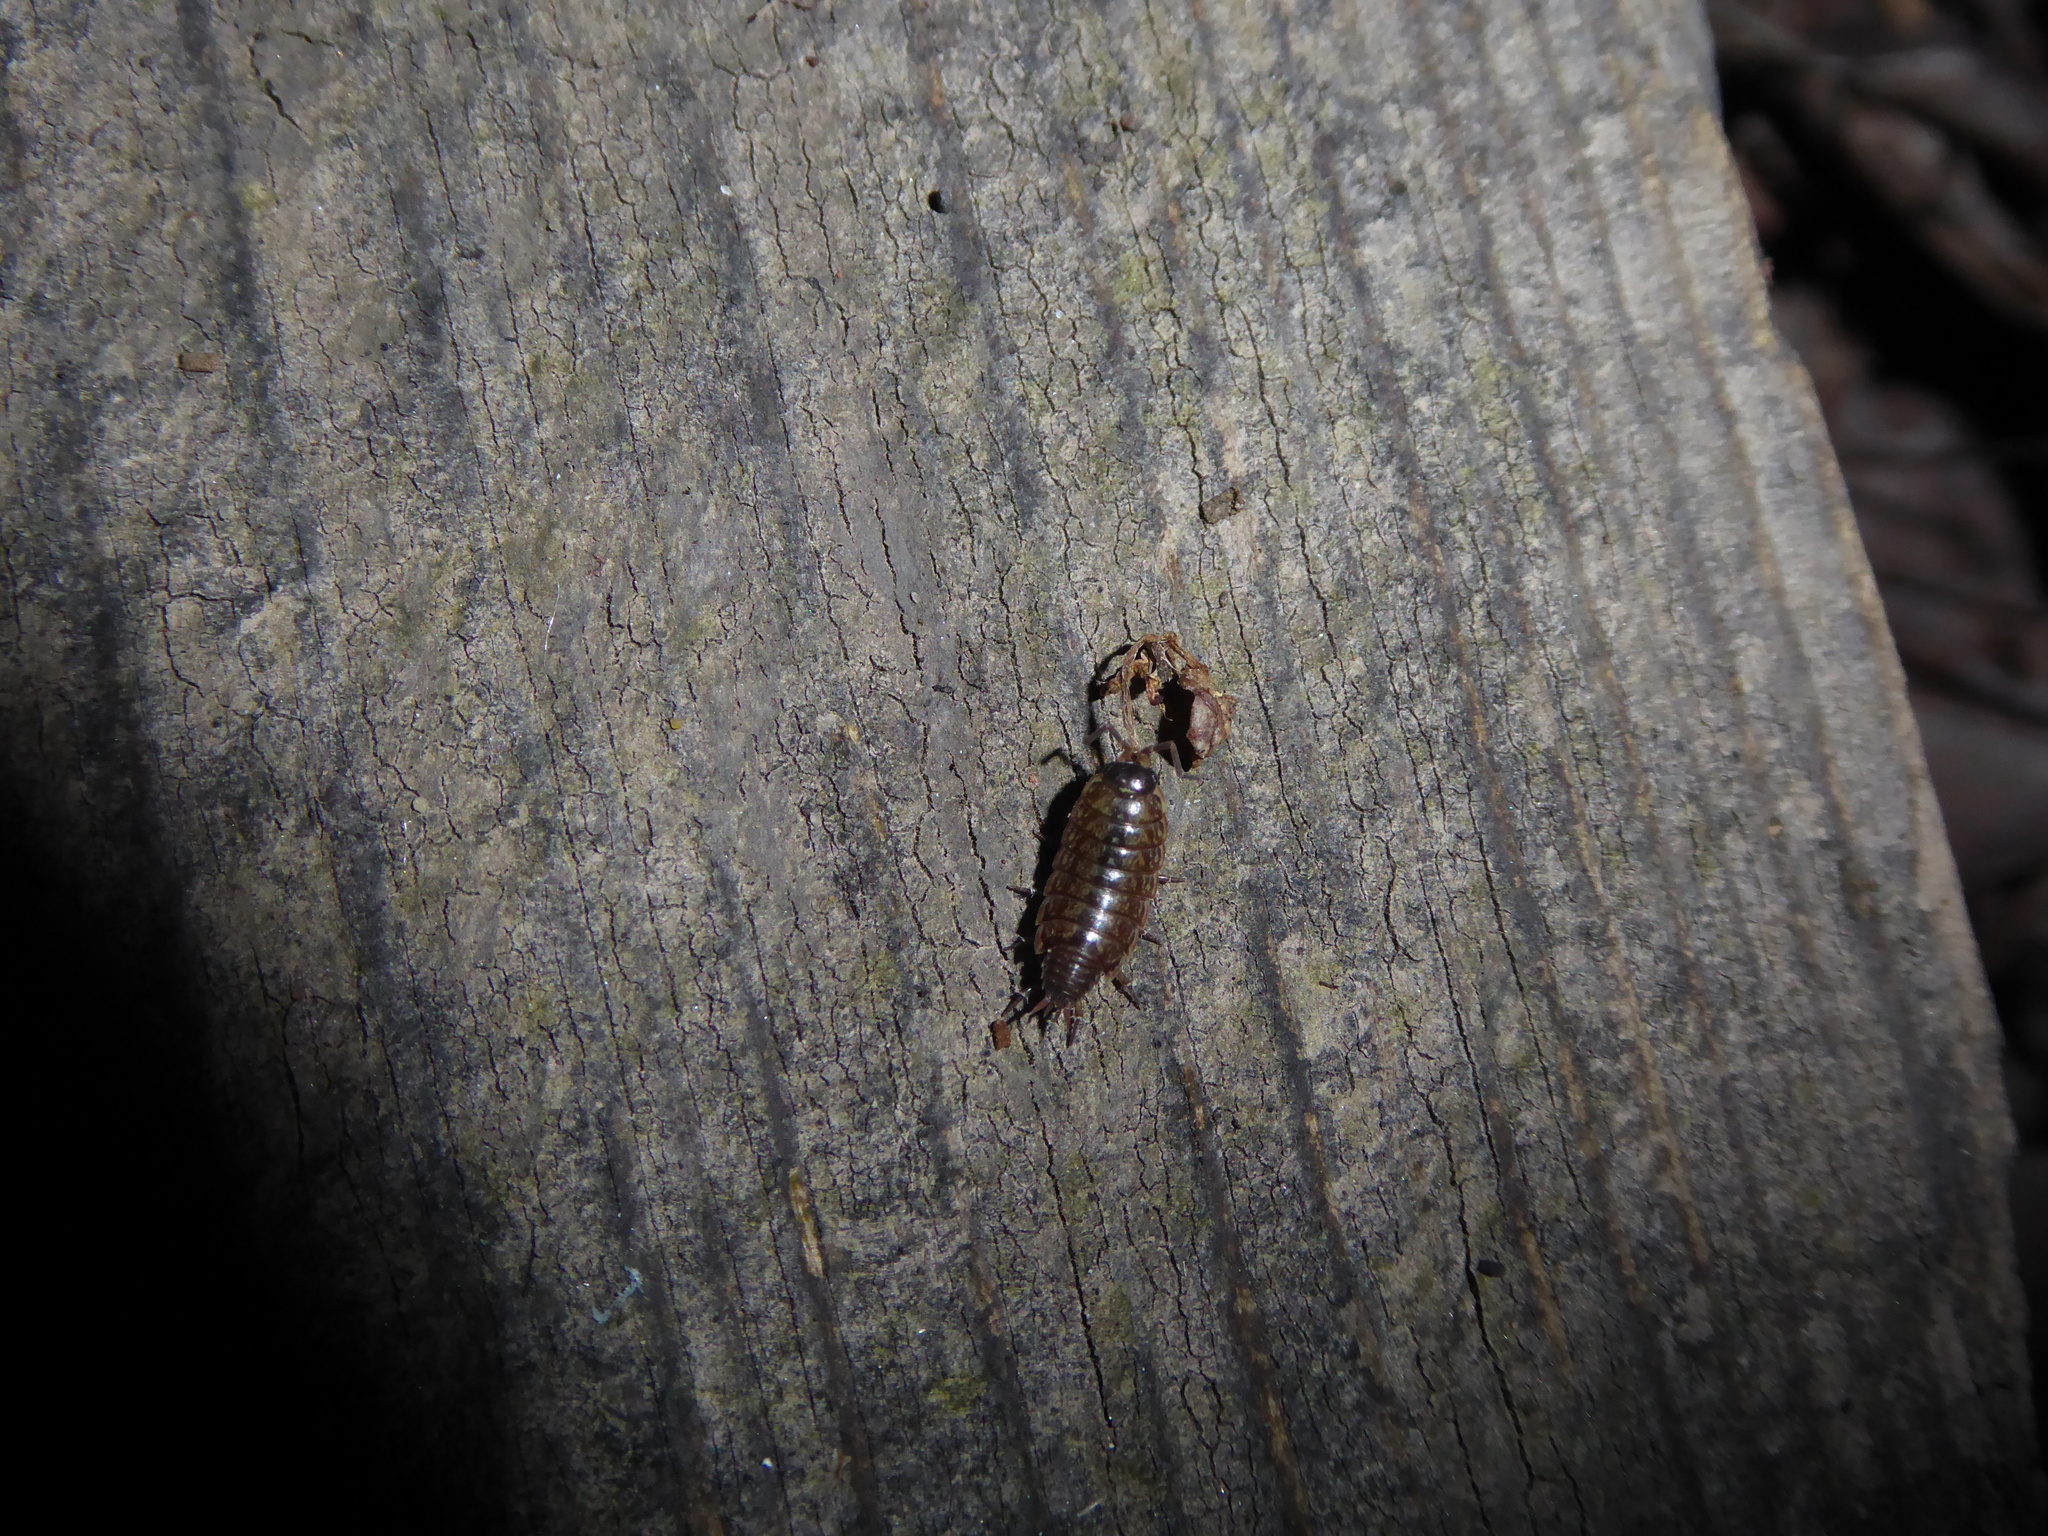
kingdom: Animalia
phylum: Arthropoda
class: Malacostraca
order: Isopoda
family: Philosciidae
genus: Philoscia
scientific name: Philoscia muscorum
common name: Common striped woodlouse
